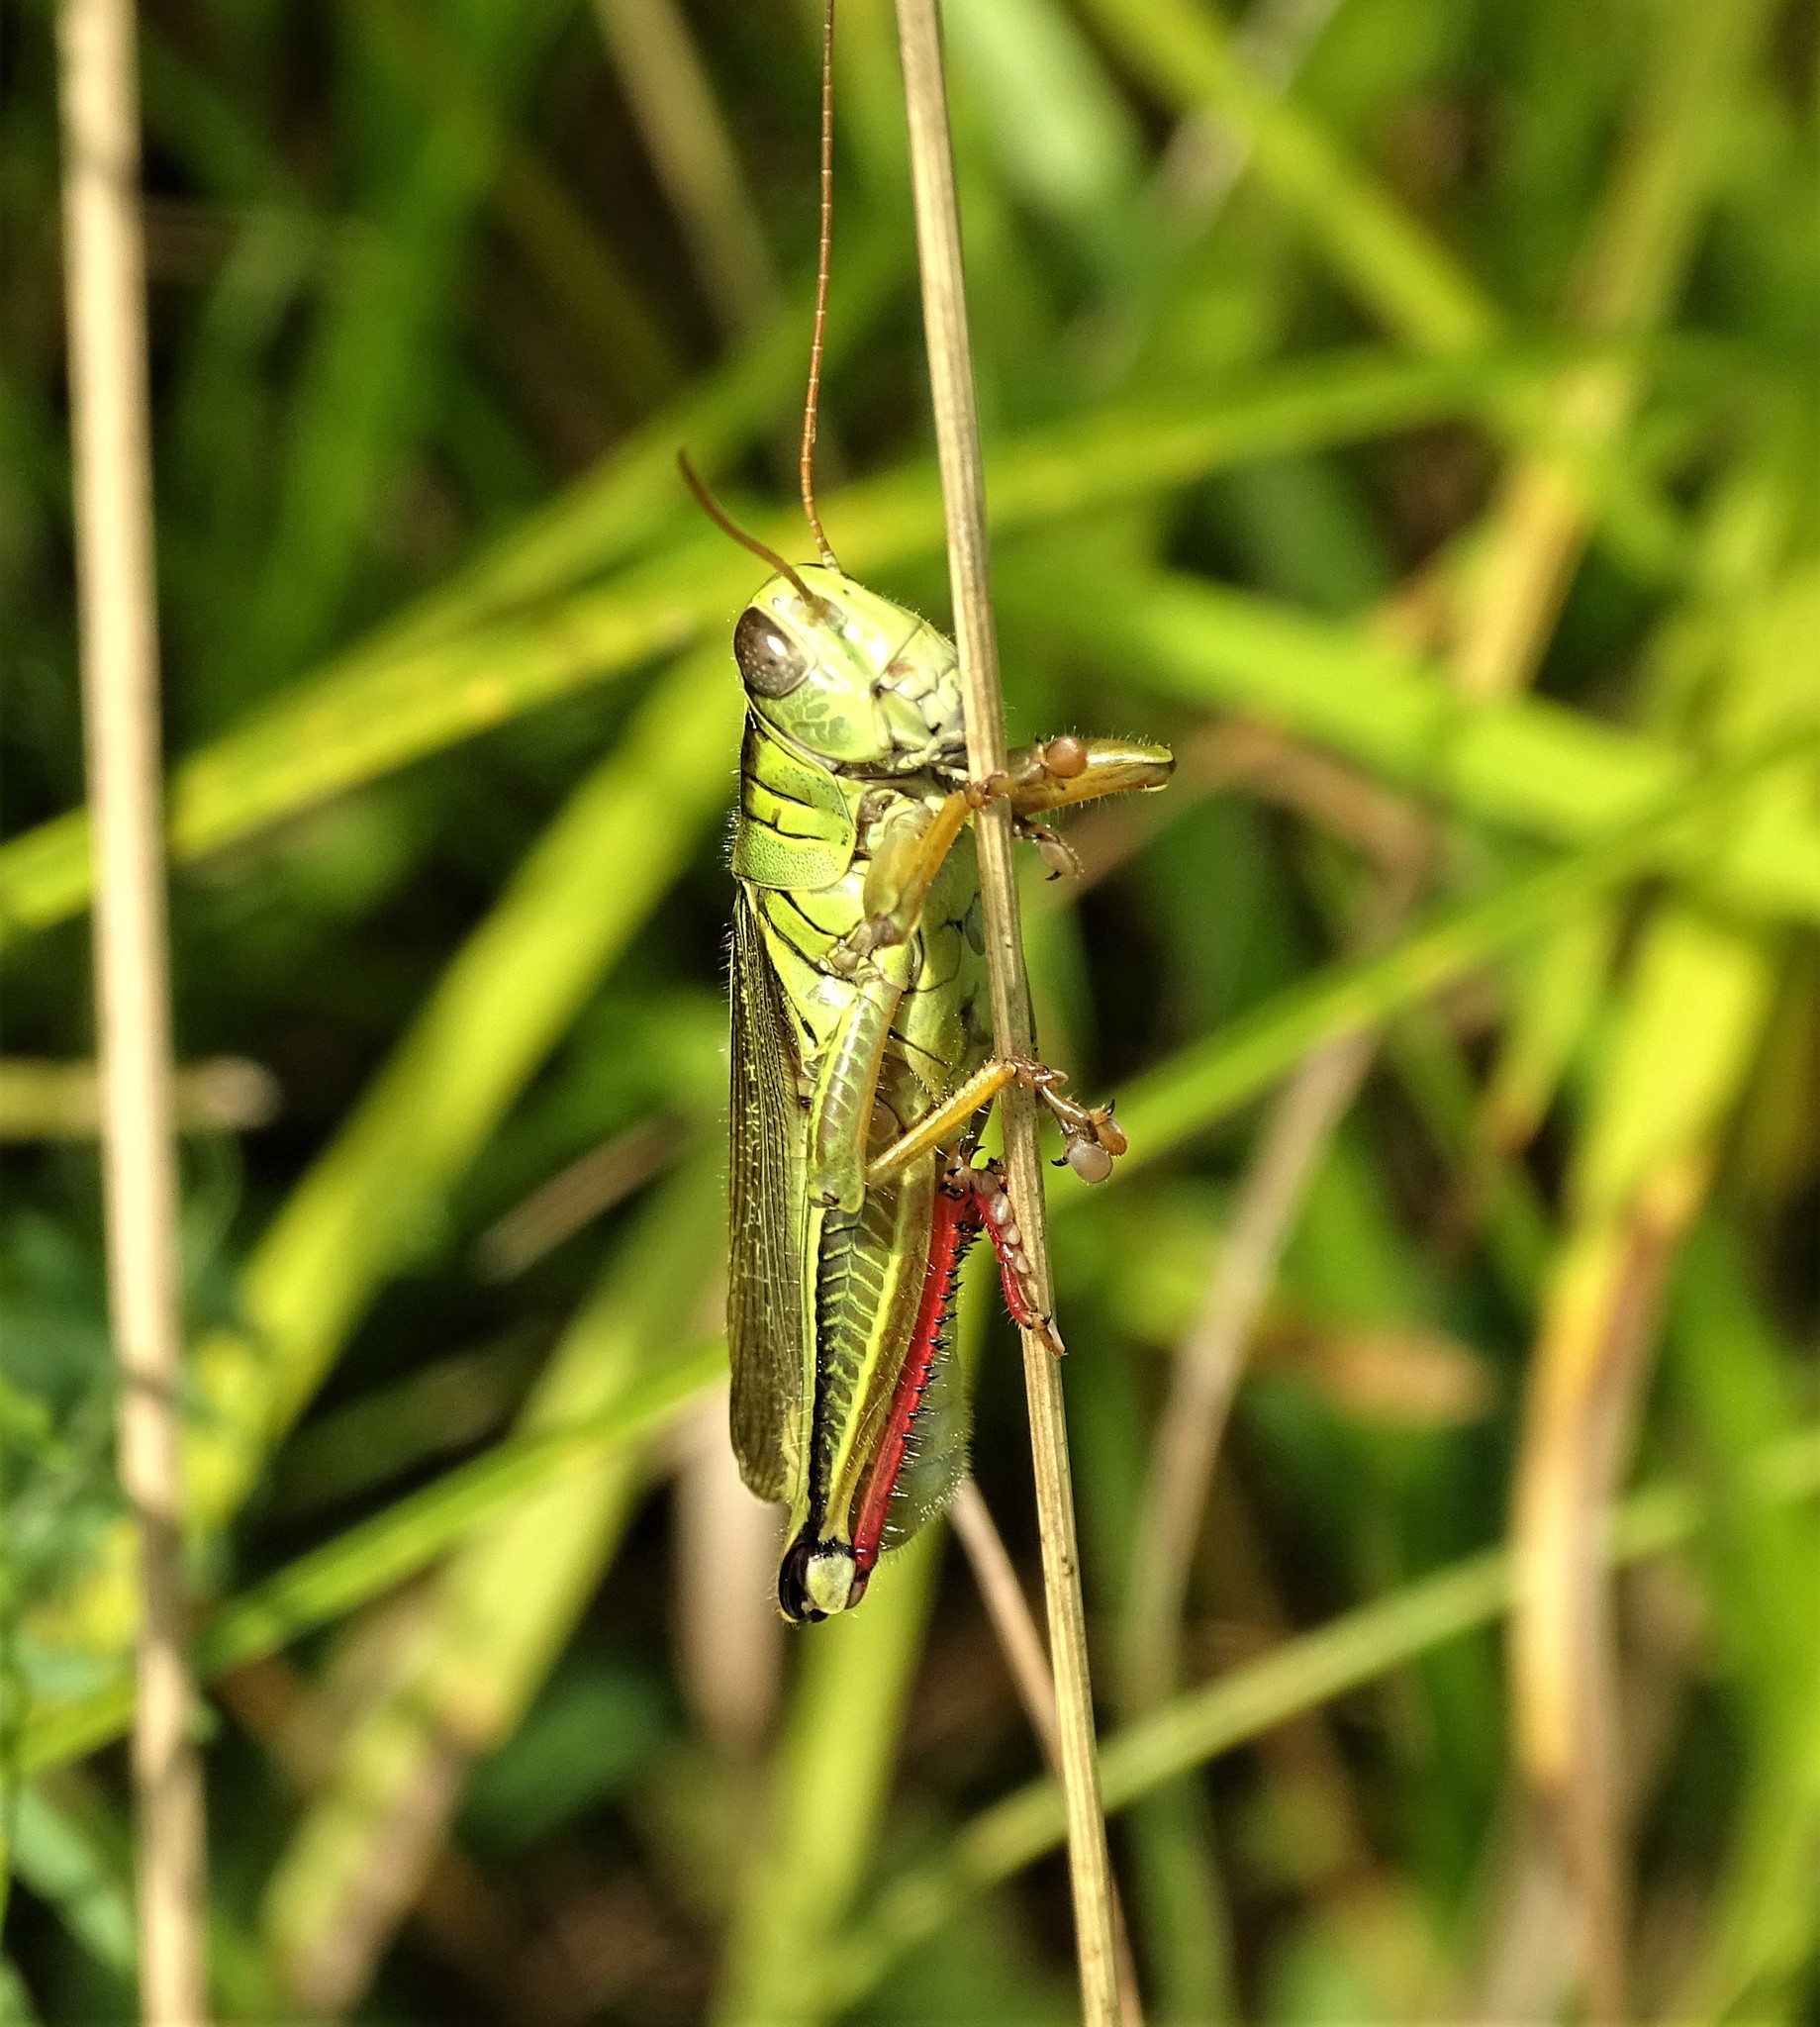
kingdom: Animalia
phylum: Arthropoda
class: Insecta
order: Orthoptera
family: Acrididae
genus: Melanoplus
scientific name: Melanoplus bivittatus
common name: Two-striped grasshopper
